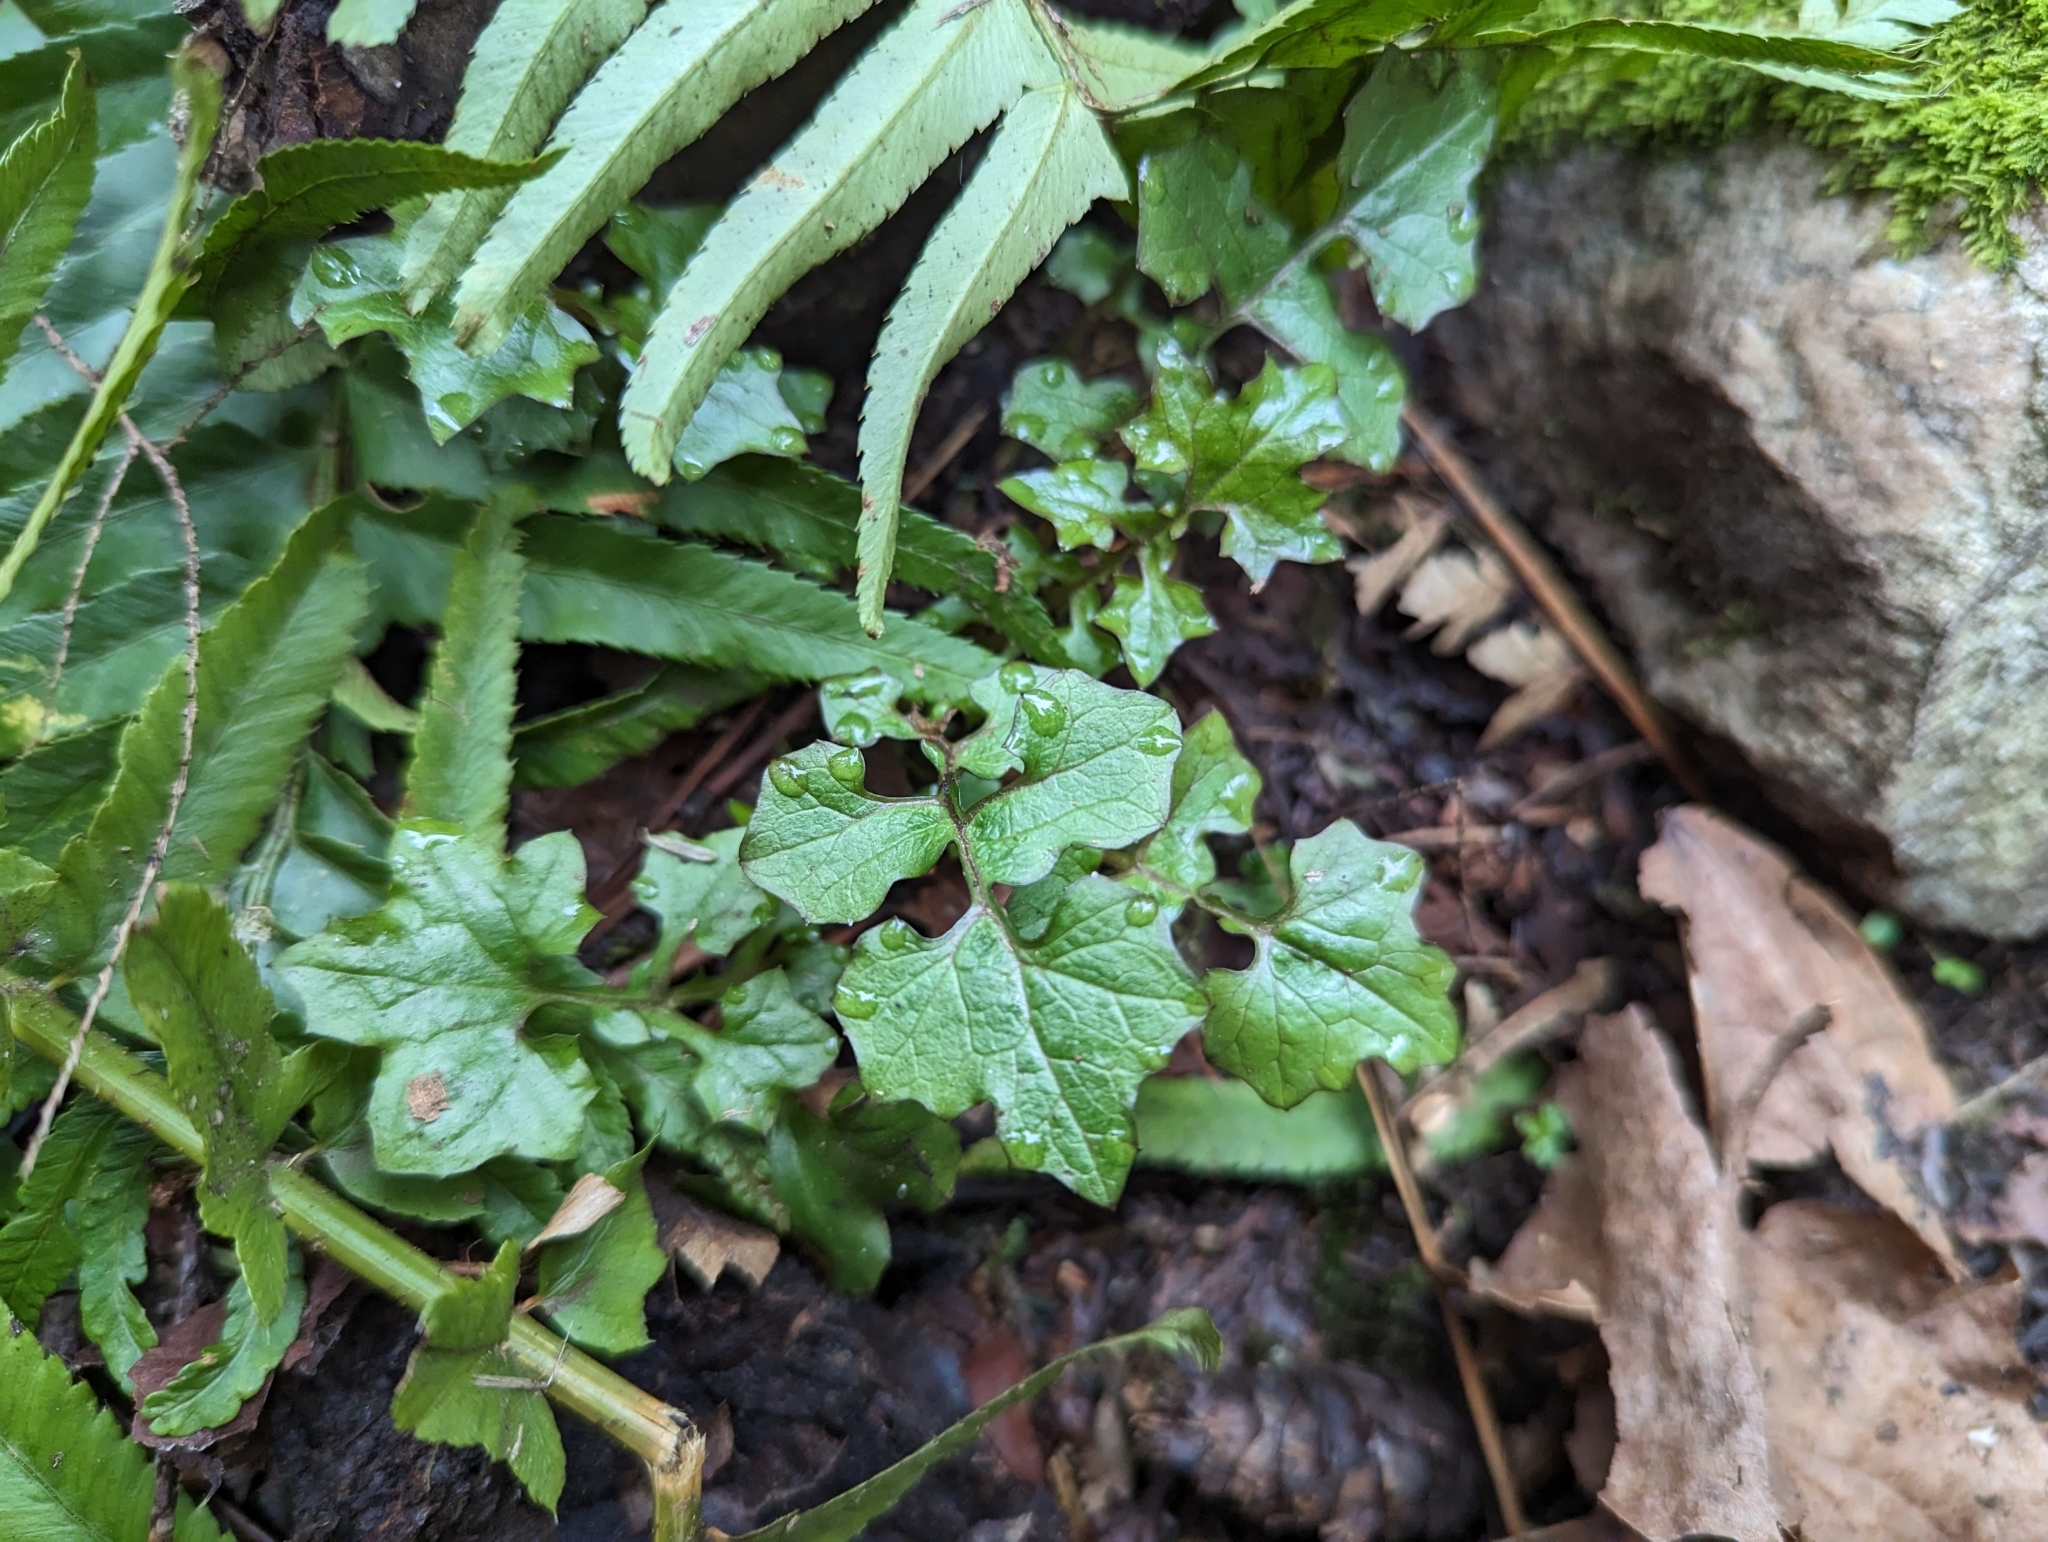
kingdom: Plantae
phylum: Tracheophyta
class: Magnoliopsida
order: Asterales
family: Asteraceae
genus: Mycelis
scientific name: Mycelis muralis
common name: Wall lettuce
